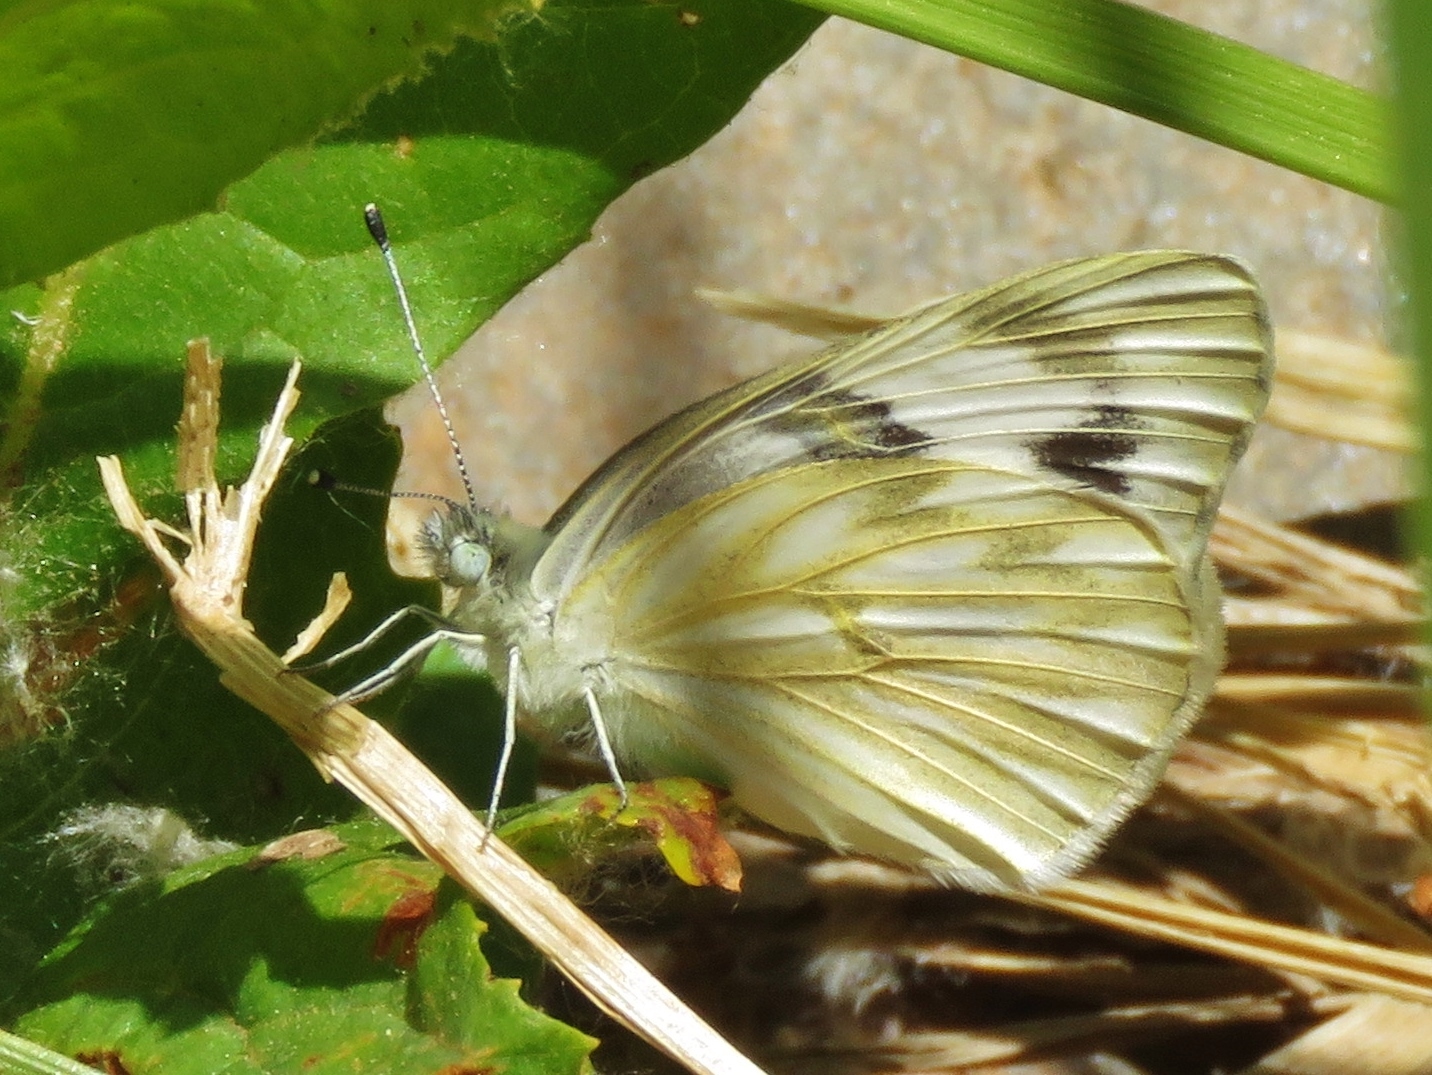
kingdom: Animalia
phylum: Arthropoda
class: Insecta
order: Lepidoptera
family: Pieridae
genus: Pontia
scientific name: Pontia protodice
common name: Checkered white
